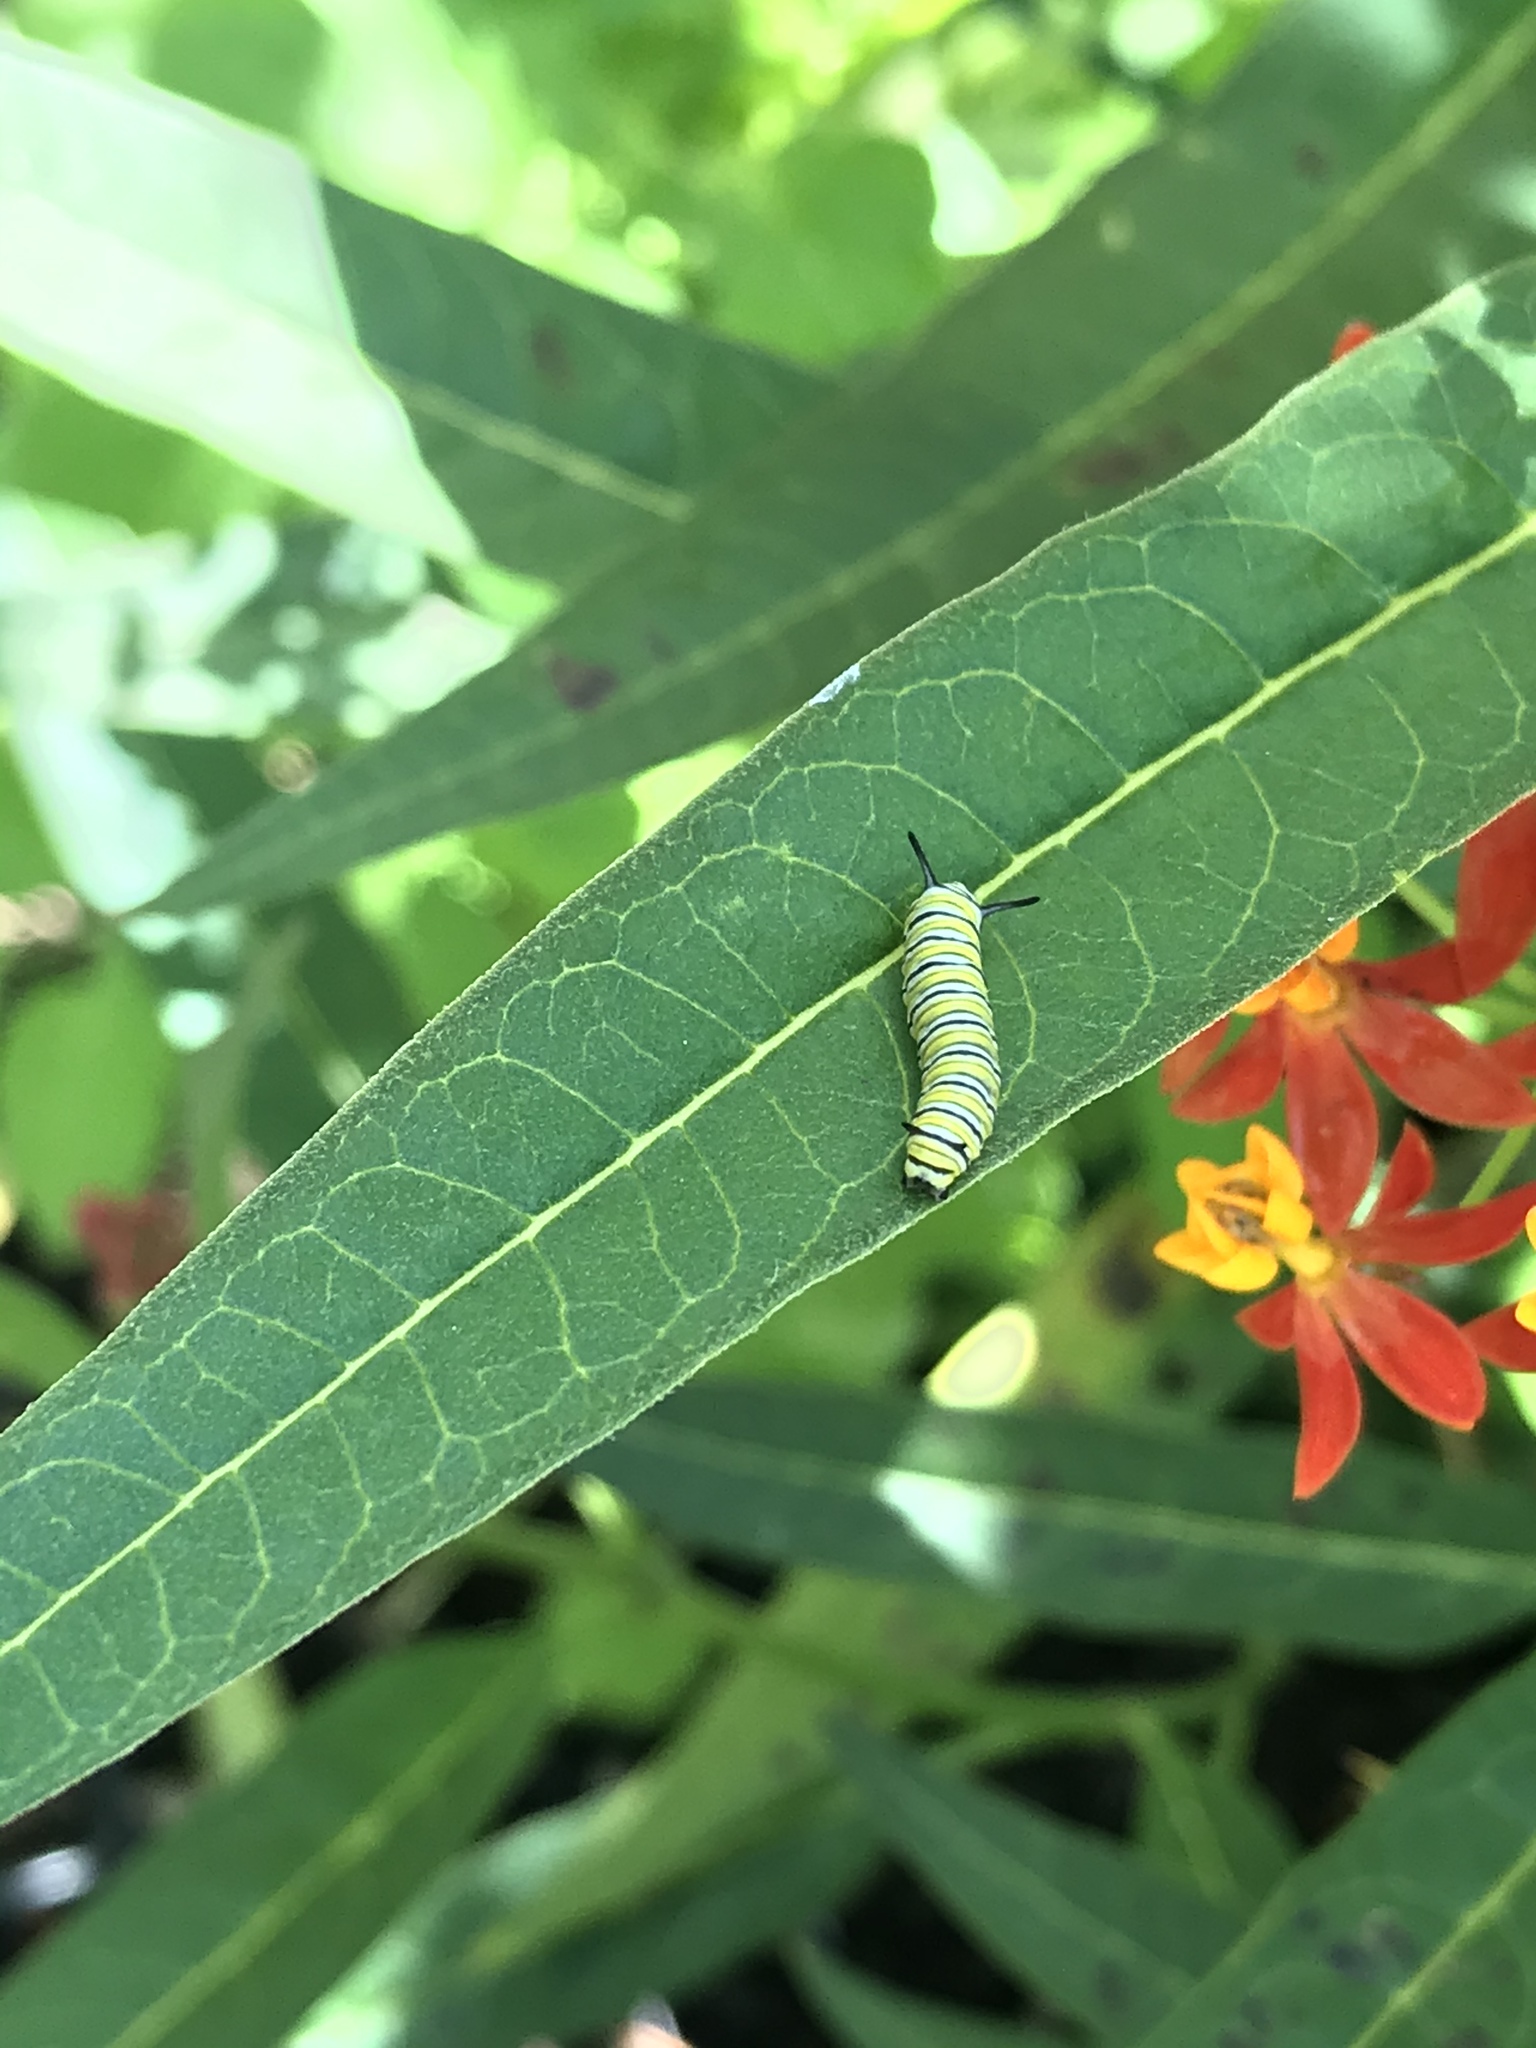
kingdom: Animalia
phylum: Arthropoda
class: Insecta
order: Lepidoptera
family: Nymphalidae
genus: Danaus
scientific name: Danaus plexippus
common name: Monarch
